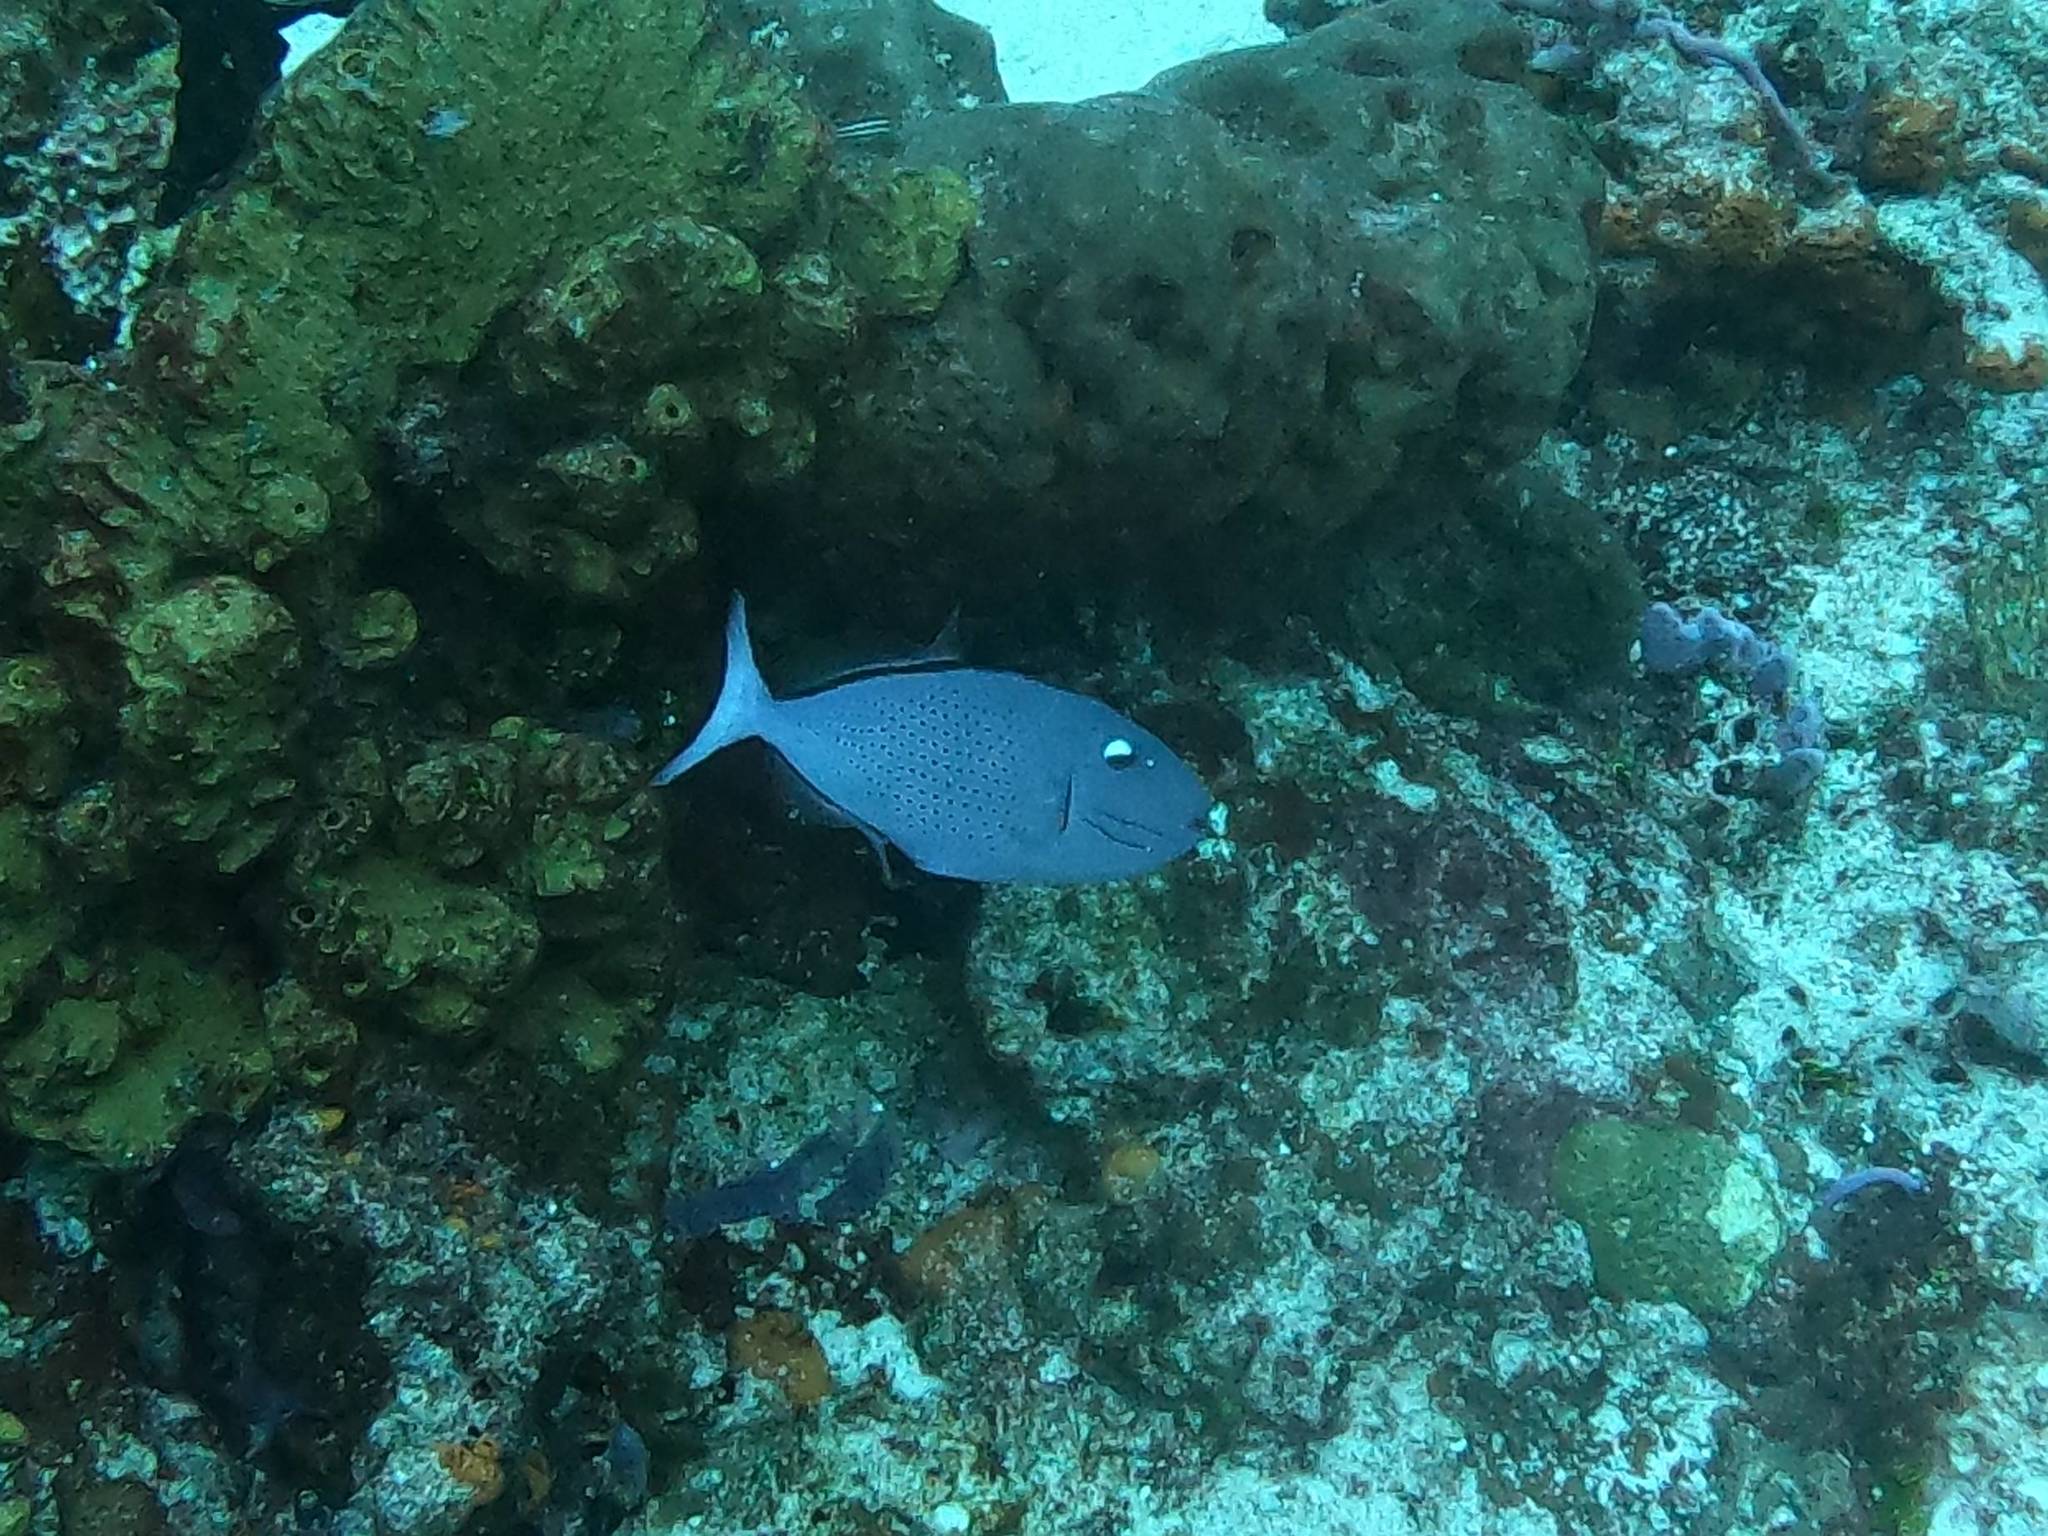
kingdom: Animalia
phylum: Chordata
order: Tetraodontiformes
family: Balistidae
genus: Xanthichthys
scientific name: Xanthichthys ringens
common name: Sargassum triggerfish
